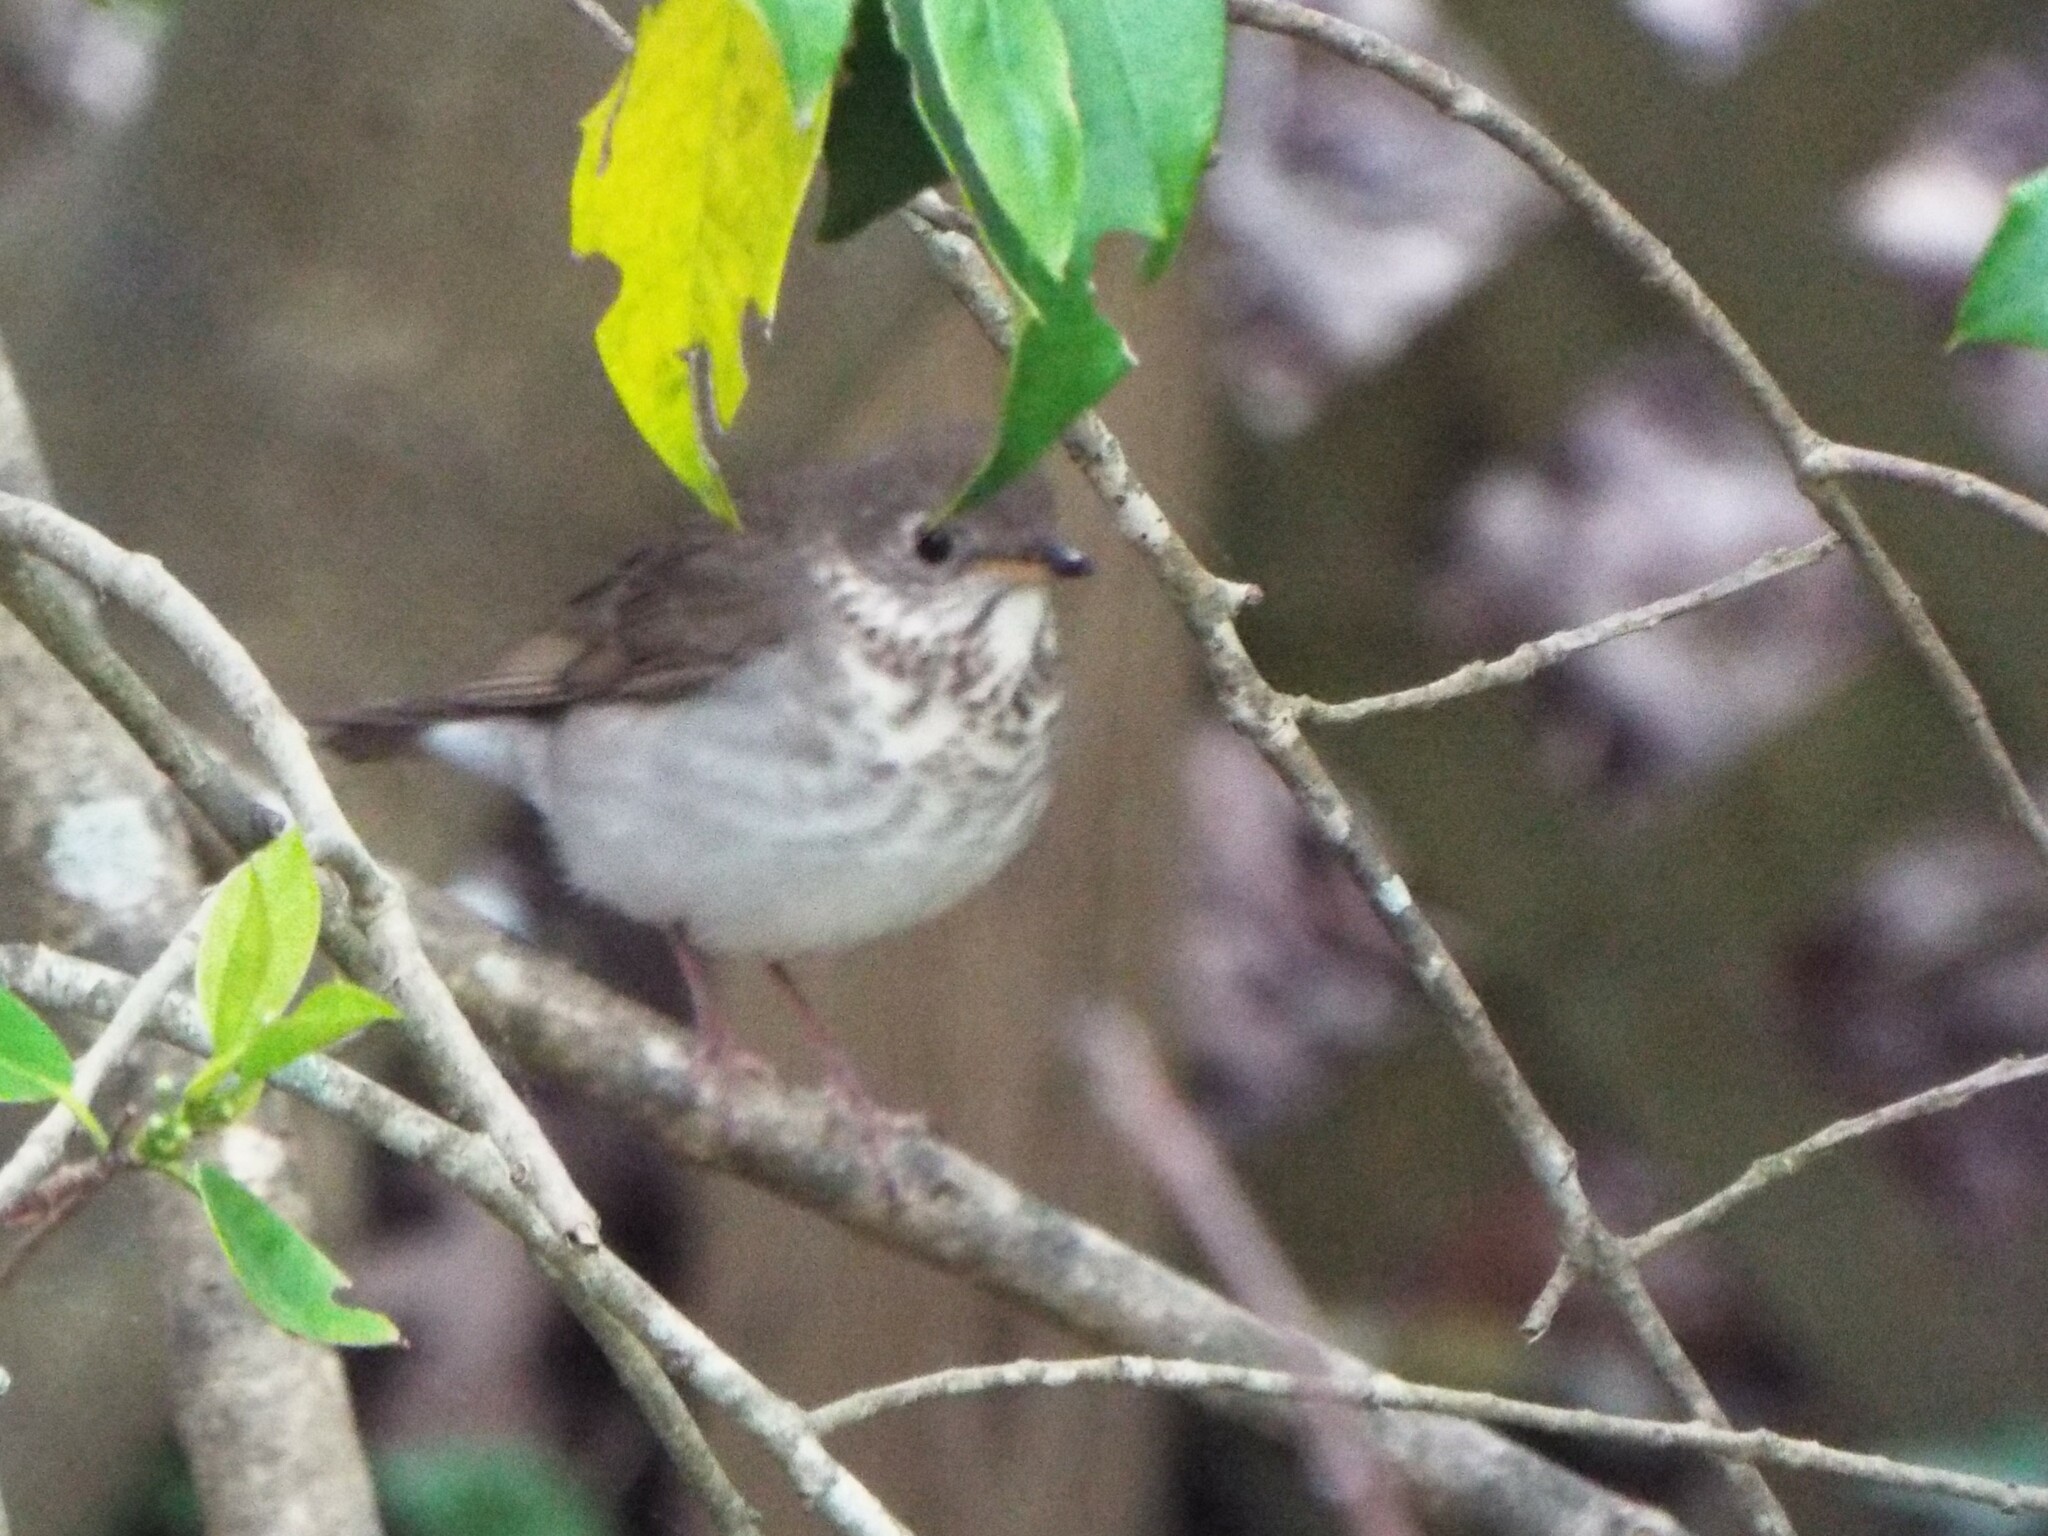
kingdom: Animalia
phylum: Chordata
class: Aves
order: Passeriformes
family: Turdidae
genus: Catharus
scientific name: Catharus minimus
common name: Grey-cheeked thrush
